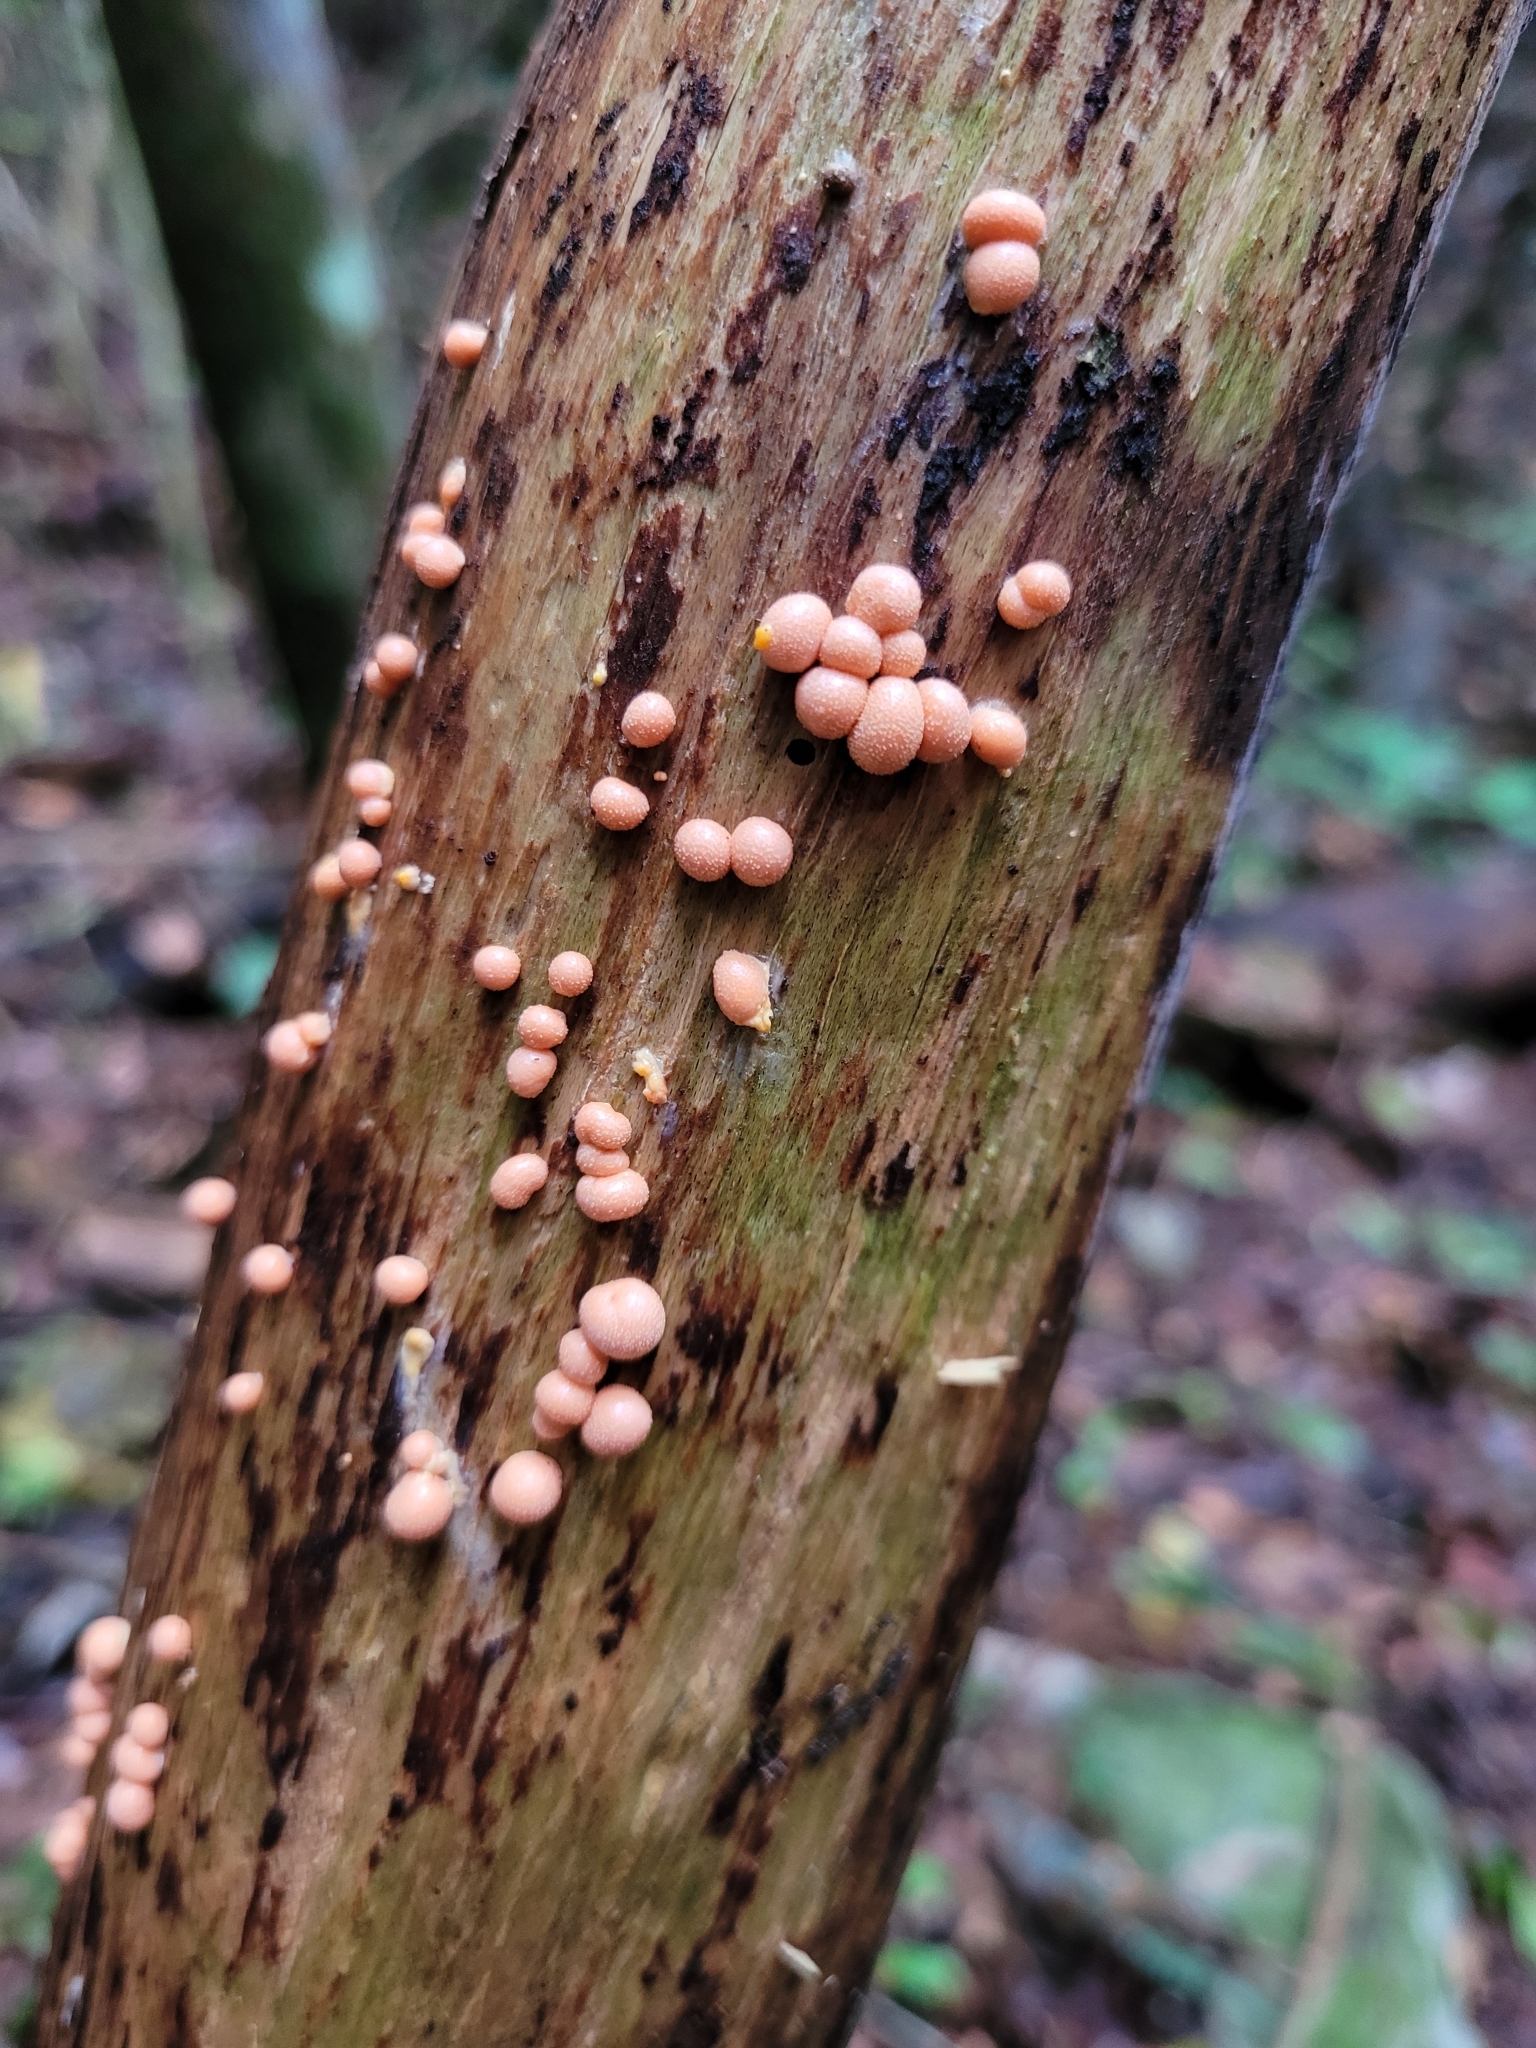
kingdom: Protozoa
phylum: Mycetozoa
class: Myxomycetes
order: Cribrariales
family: Tubiferaceae
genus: Lycogala
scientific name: Lycogala epidendrum
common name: Wolf's milk
